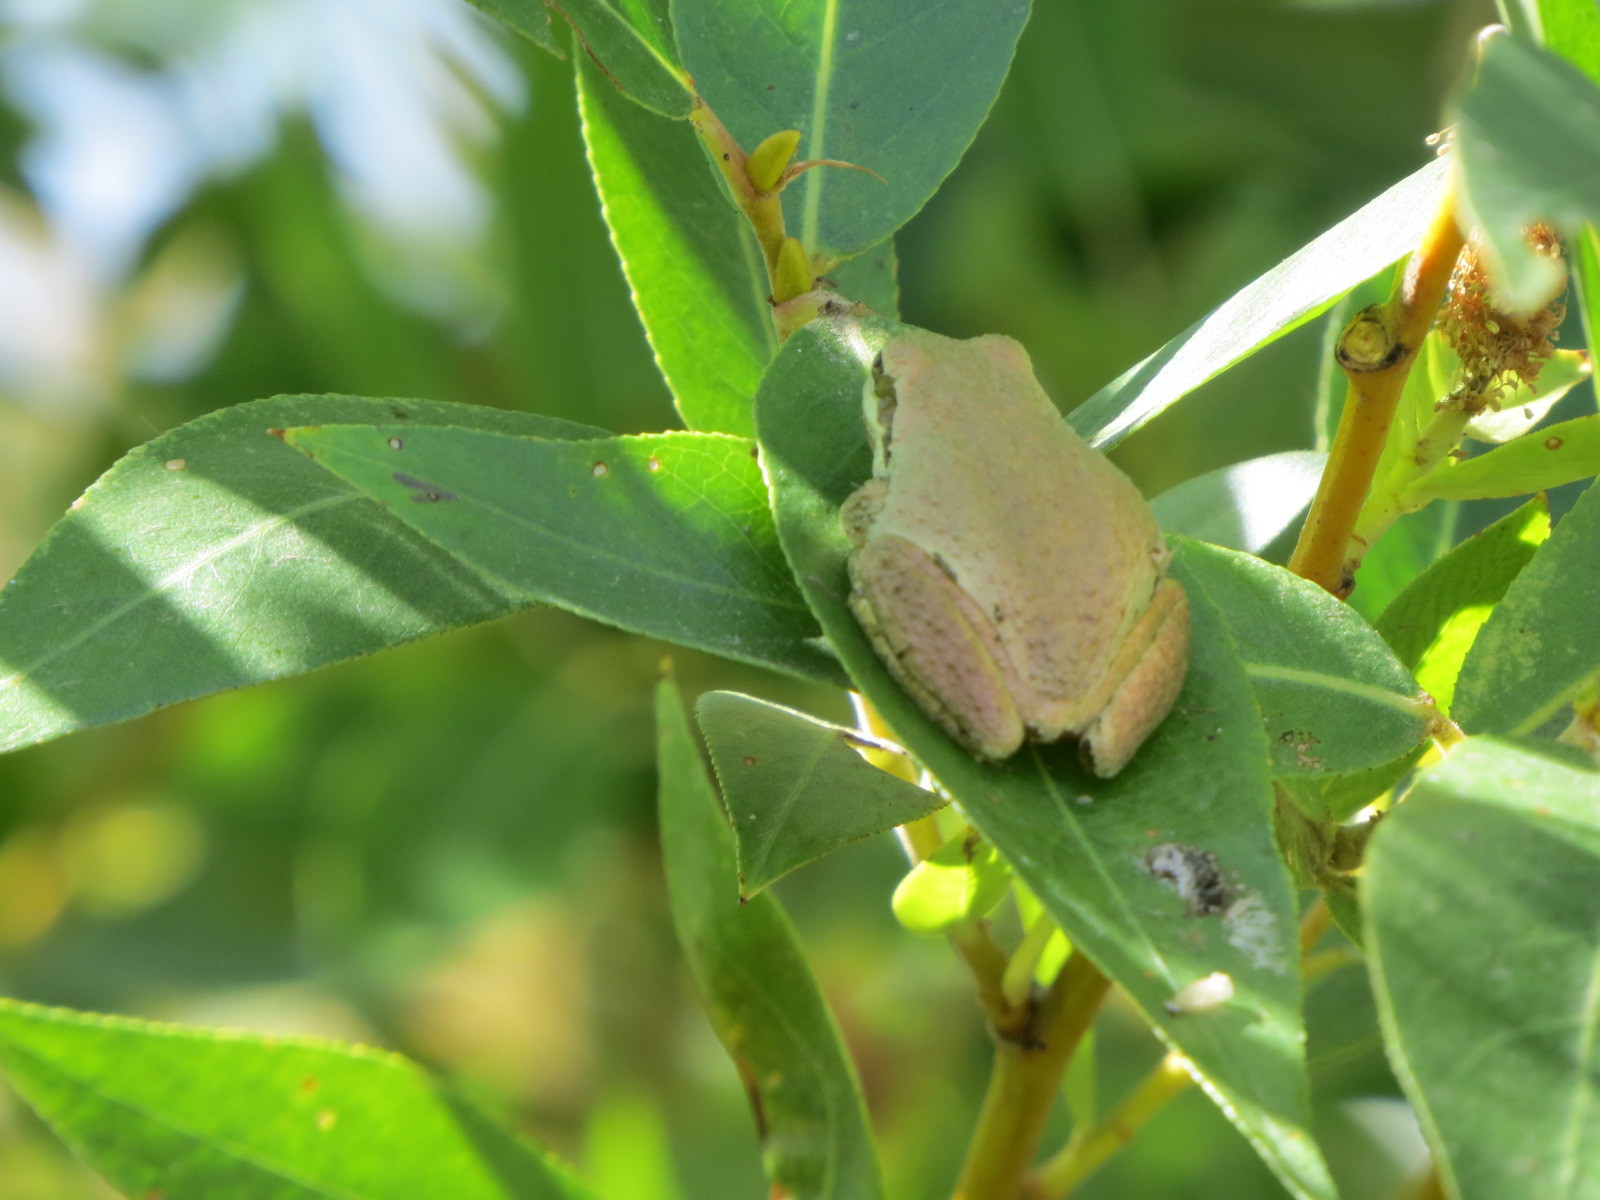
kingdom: Animalia
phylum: Chordata
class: Amphibia
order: Anura
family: Hylidae
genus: Pseudacris
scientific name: Pseudacris regilla
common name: Pacific chorus frog
